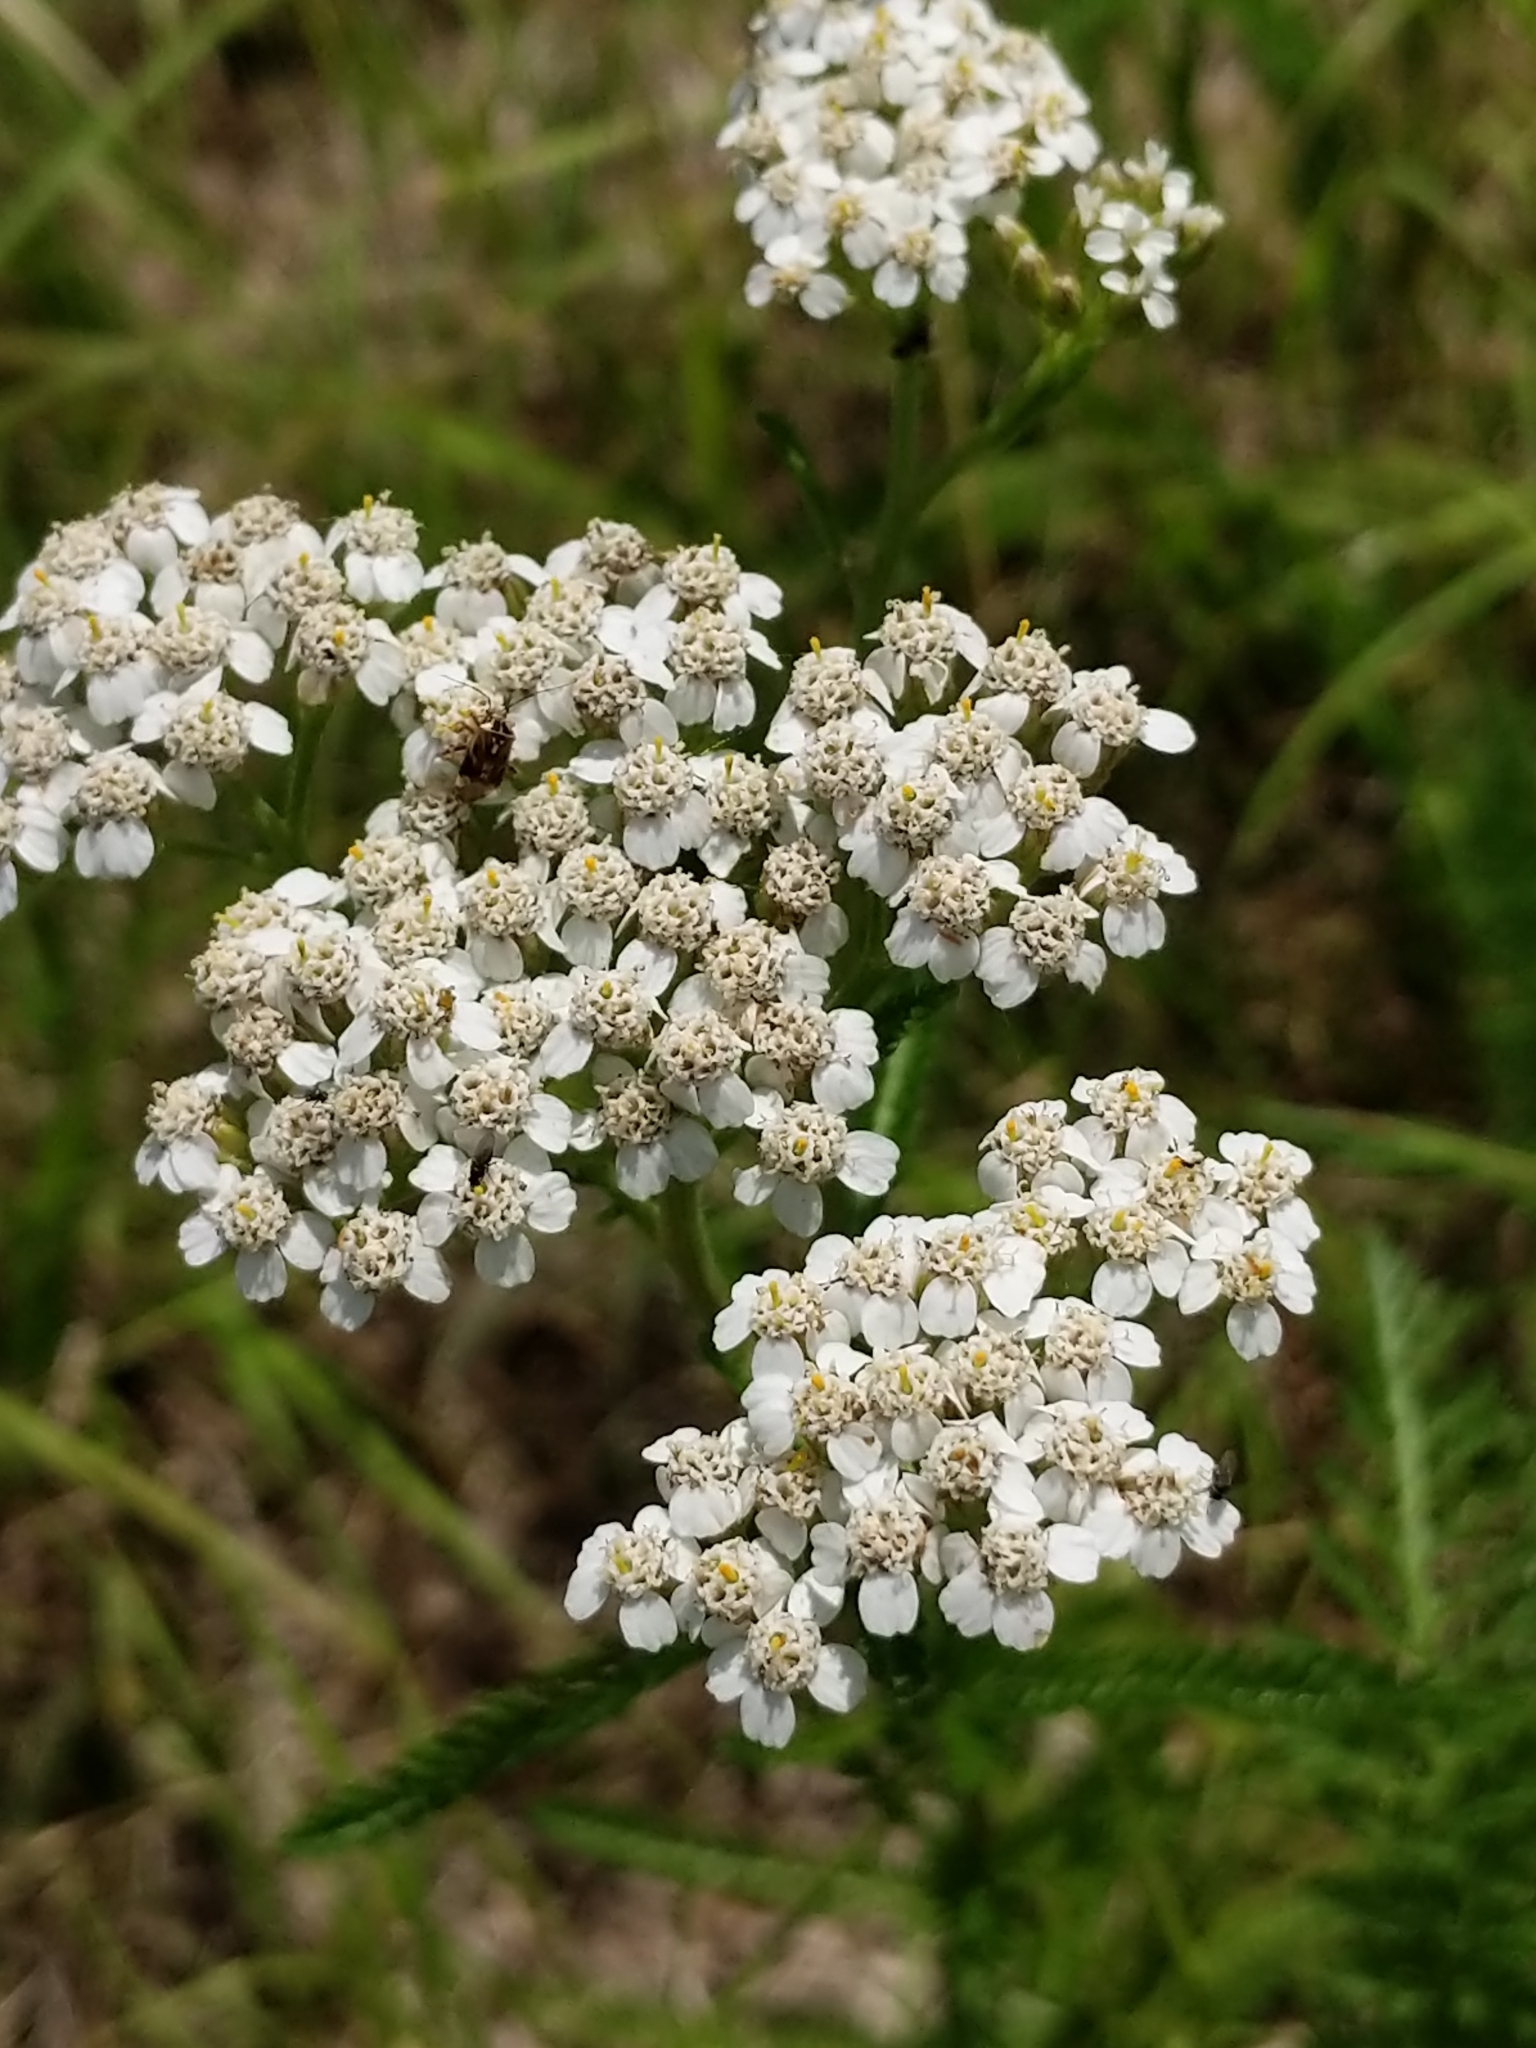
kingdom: Plantae
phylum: Tracheophyta
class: Magnoliopsida
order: Asterales
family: Asteraceae
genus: Achillea
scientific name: Achillea millefolium
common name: Yarrow
